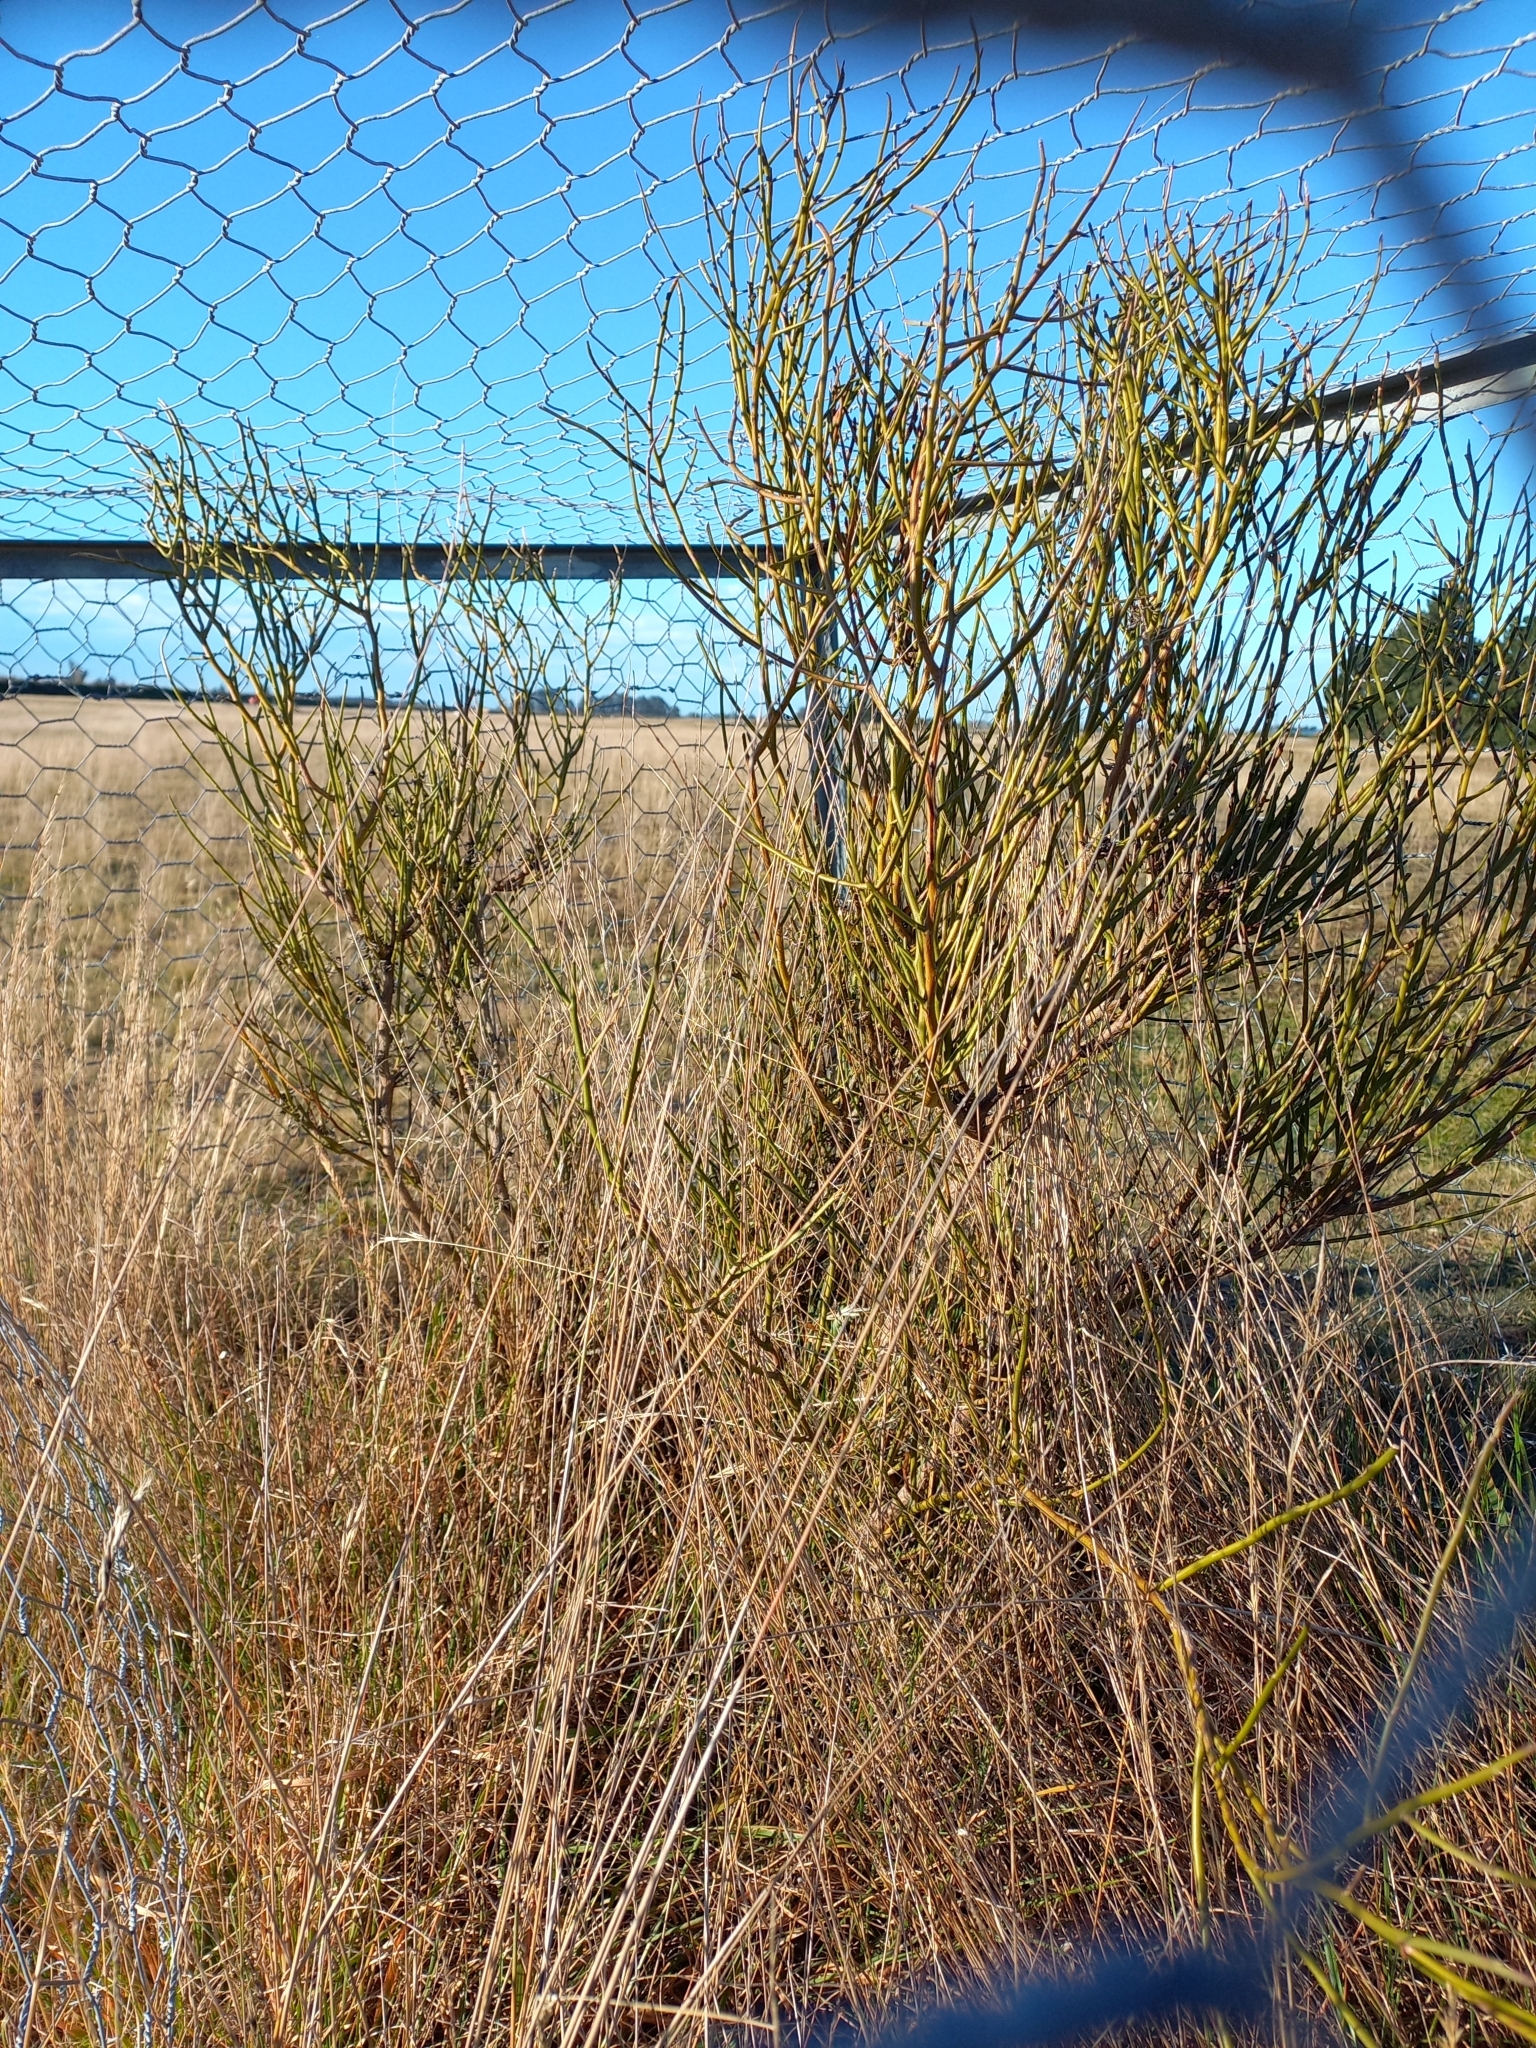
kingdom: Plantae
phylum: Tracheophyta
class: Magnoliopsida
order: Fabales
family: Fabaceae
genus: Carmichaelia
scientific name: Carmichaelia australis
